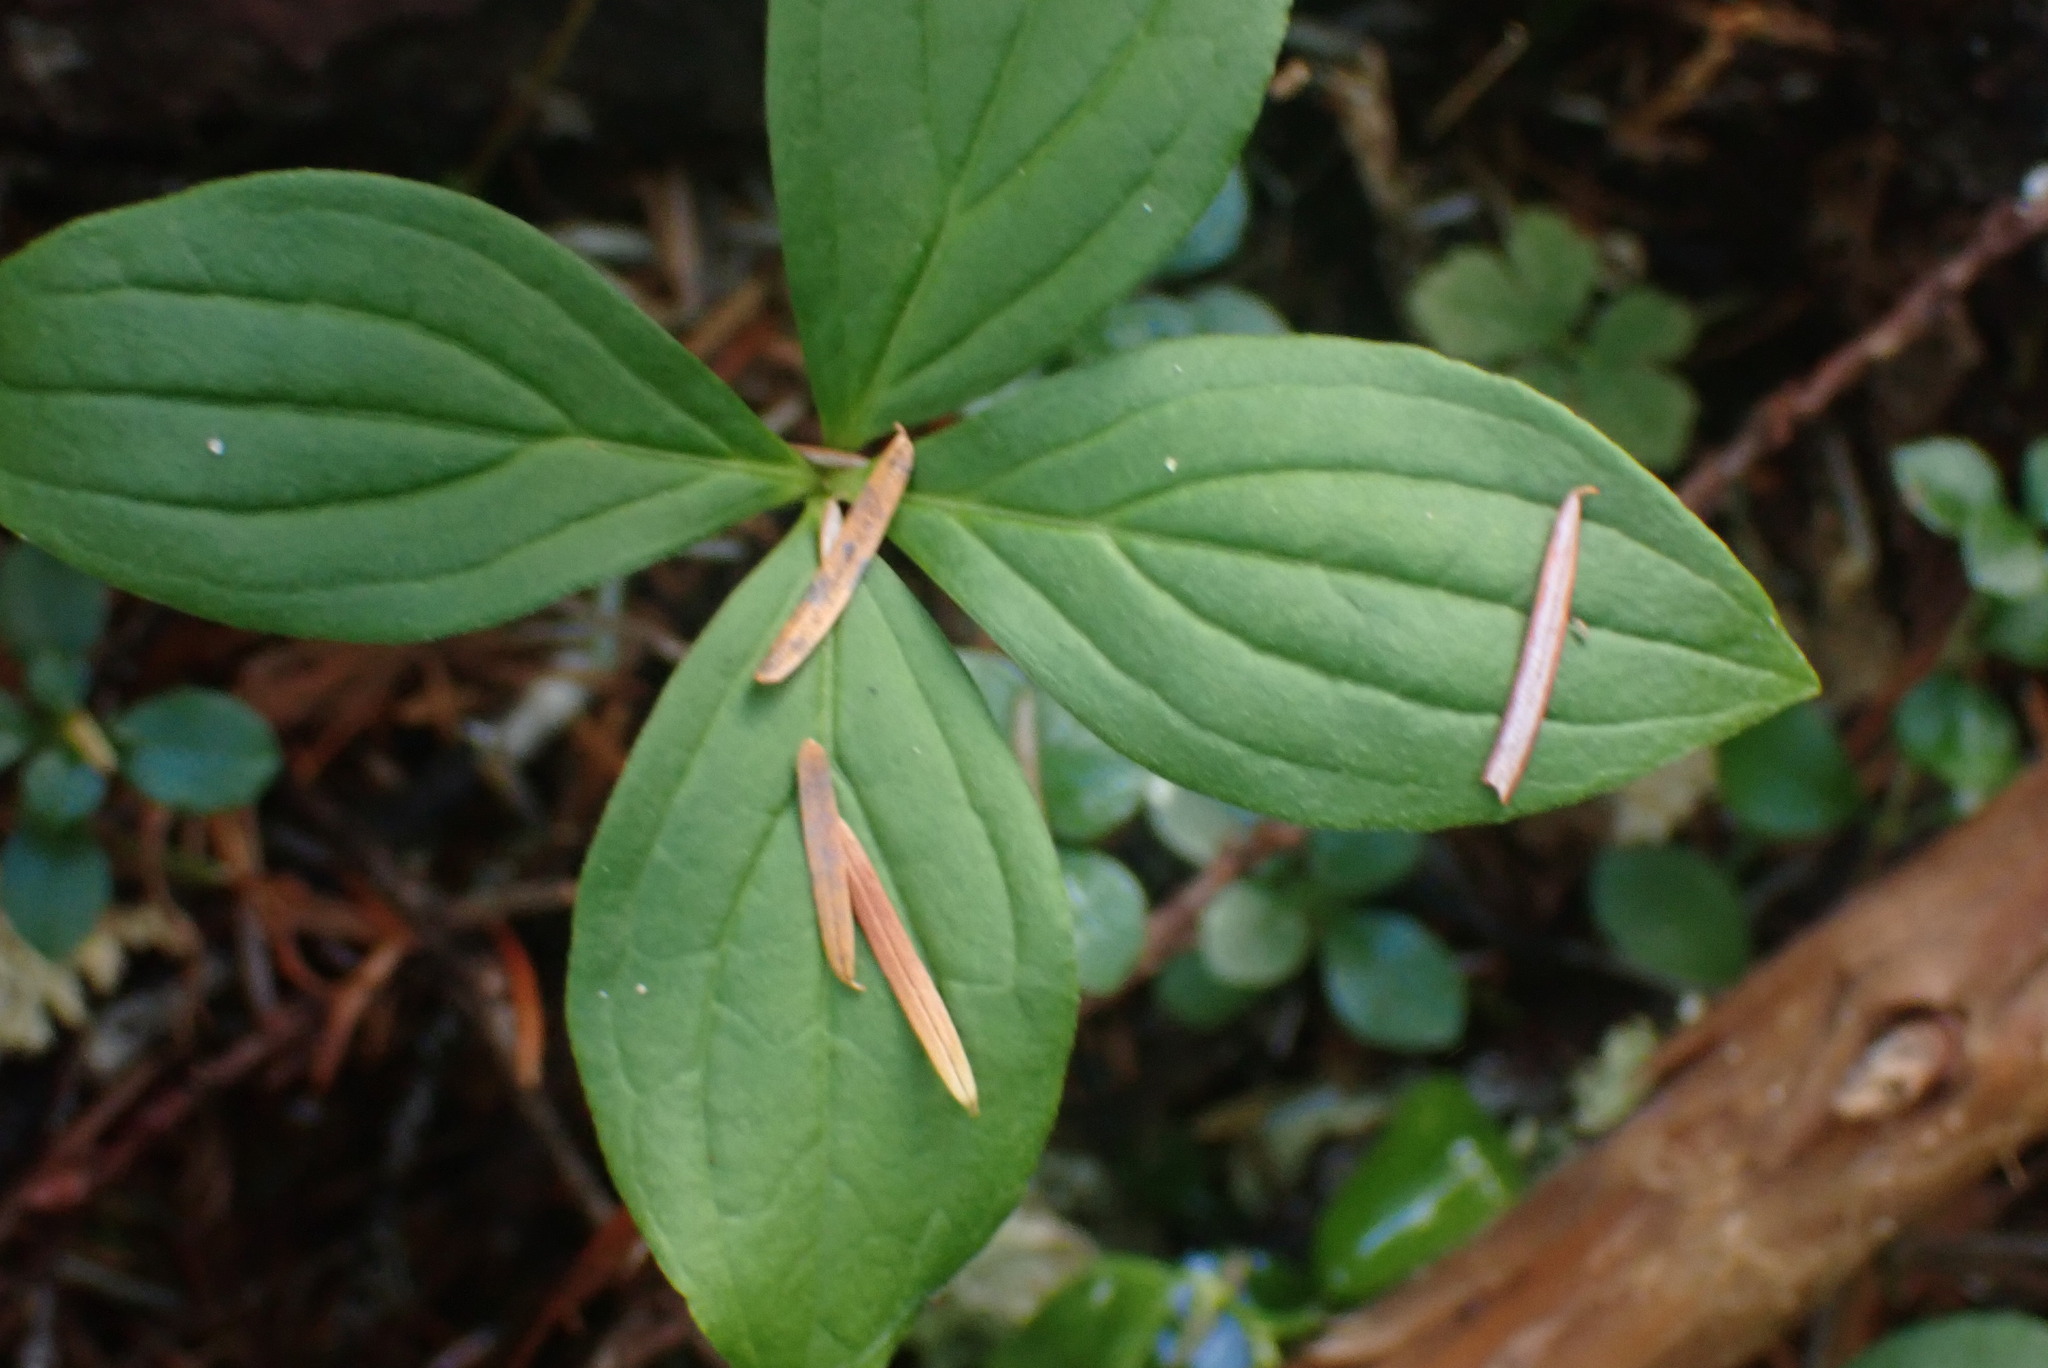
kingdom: Plantae
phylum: Tracheophyta
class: Magnoliopsida
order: Cornales
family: Cornaceae
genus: Cornus
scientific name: Cornus unalaschkensis
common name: Alaska bunchberry
